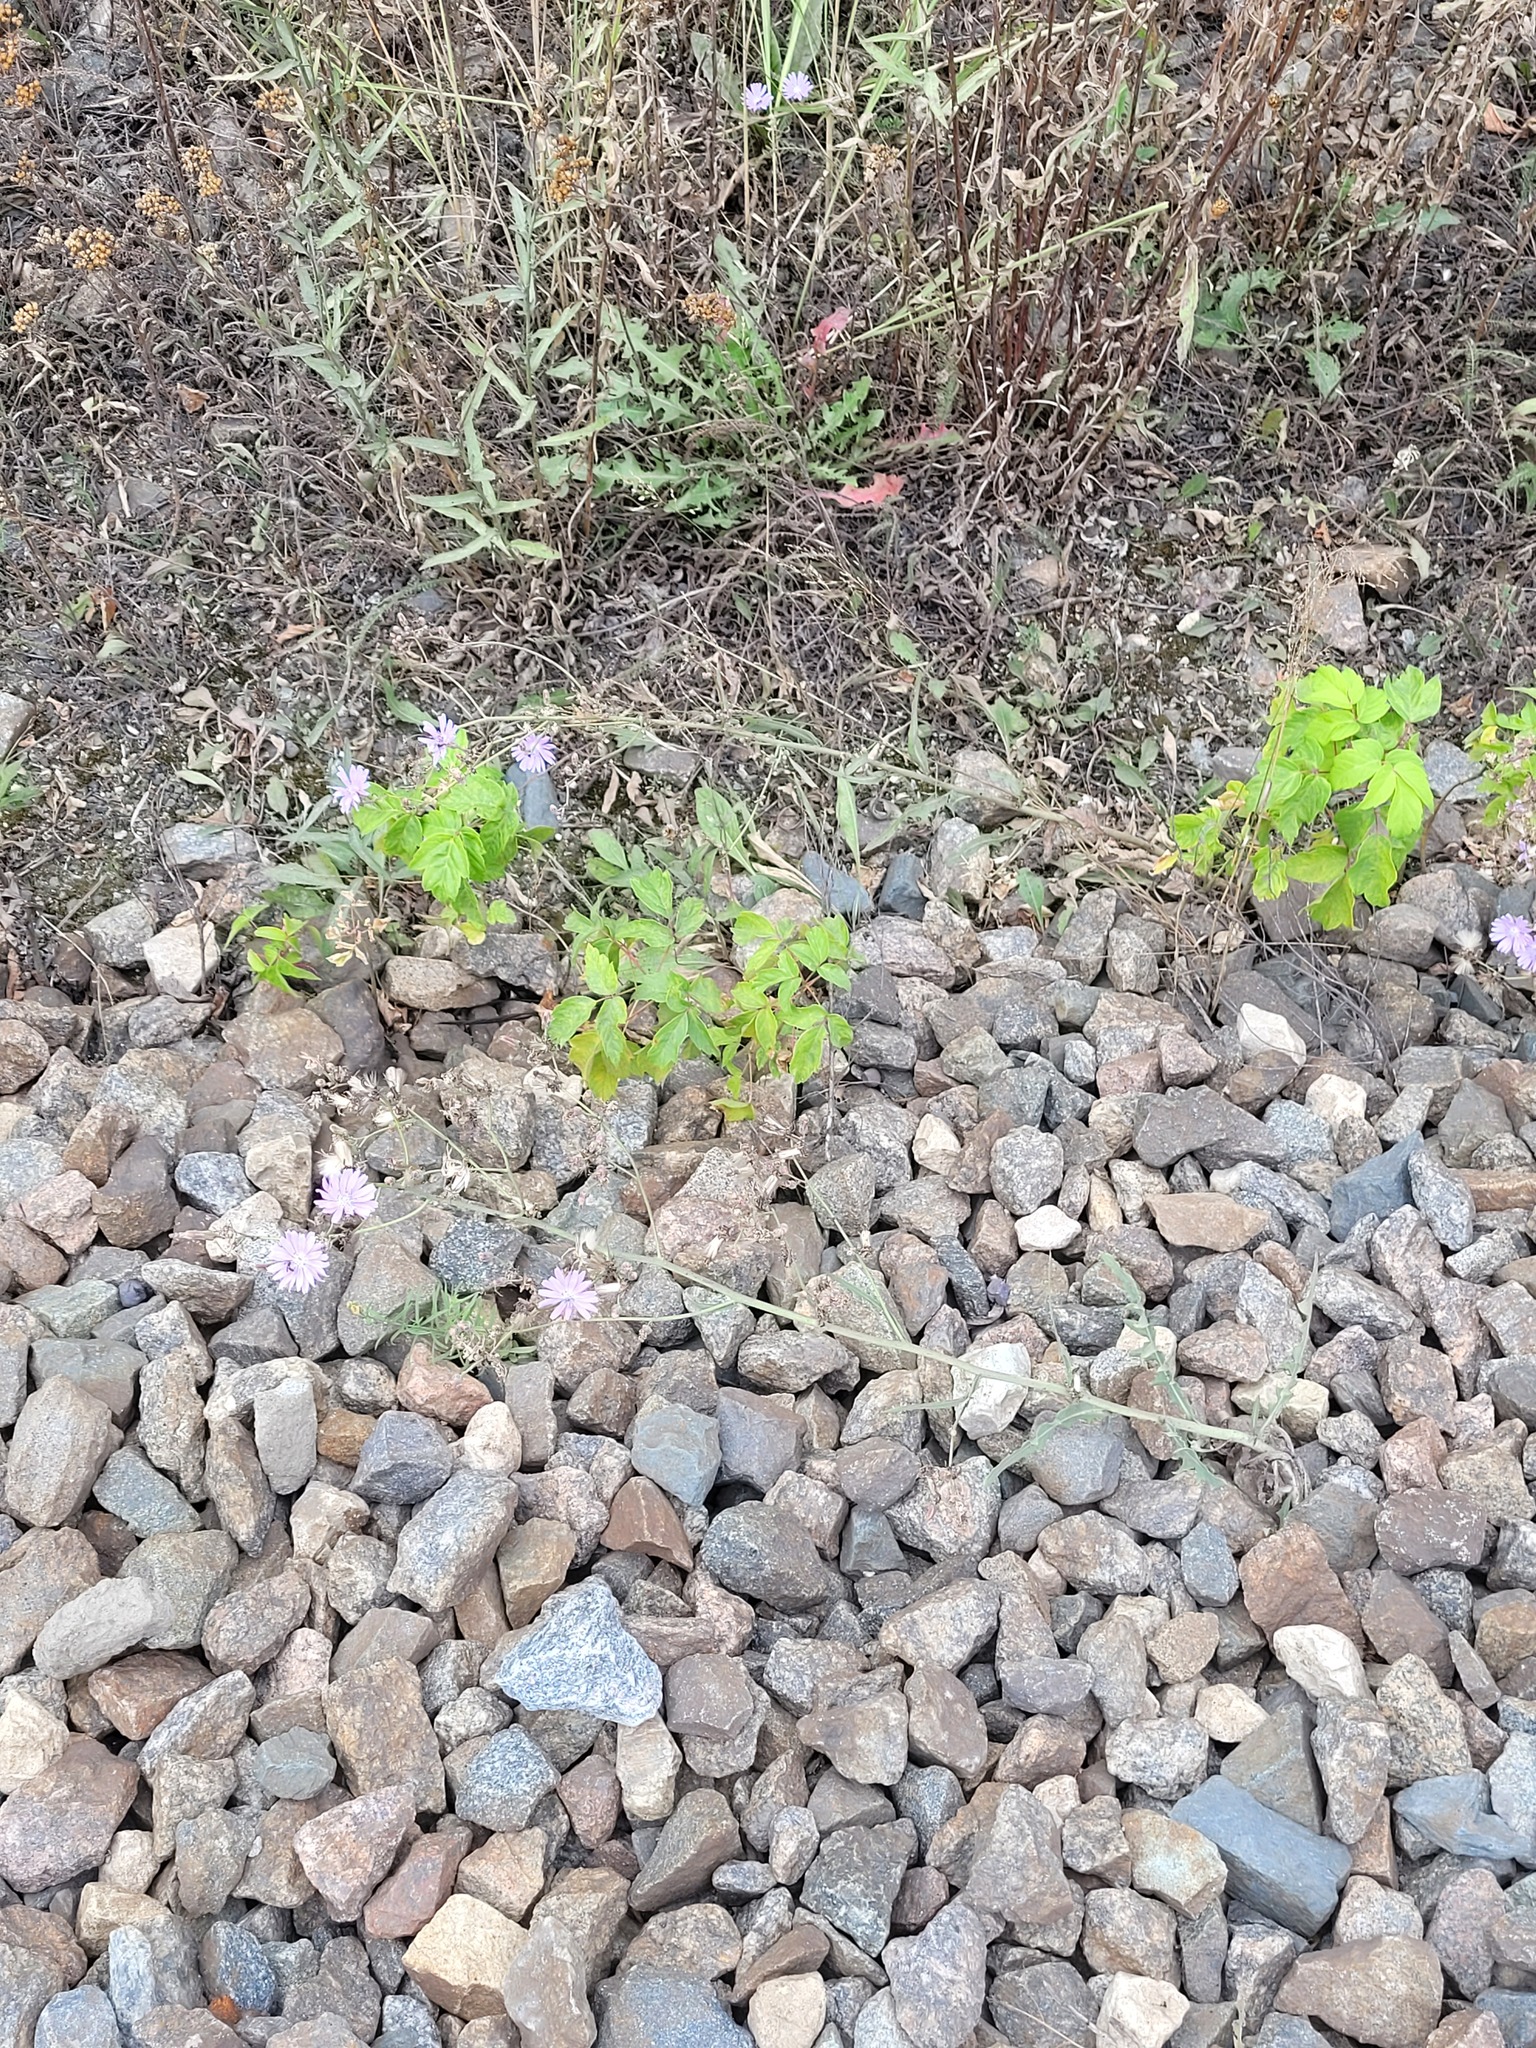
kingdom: Plantae
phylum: Tracheophyta
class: Magnoliopsida
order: Asterales
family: Asteraceae
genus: Lactuca
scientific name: Lactuca tatarica
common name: Blue lettuce
